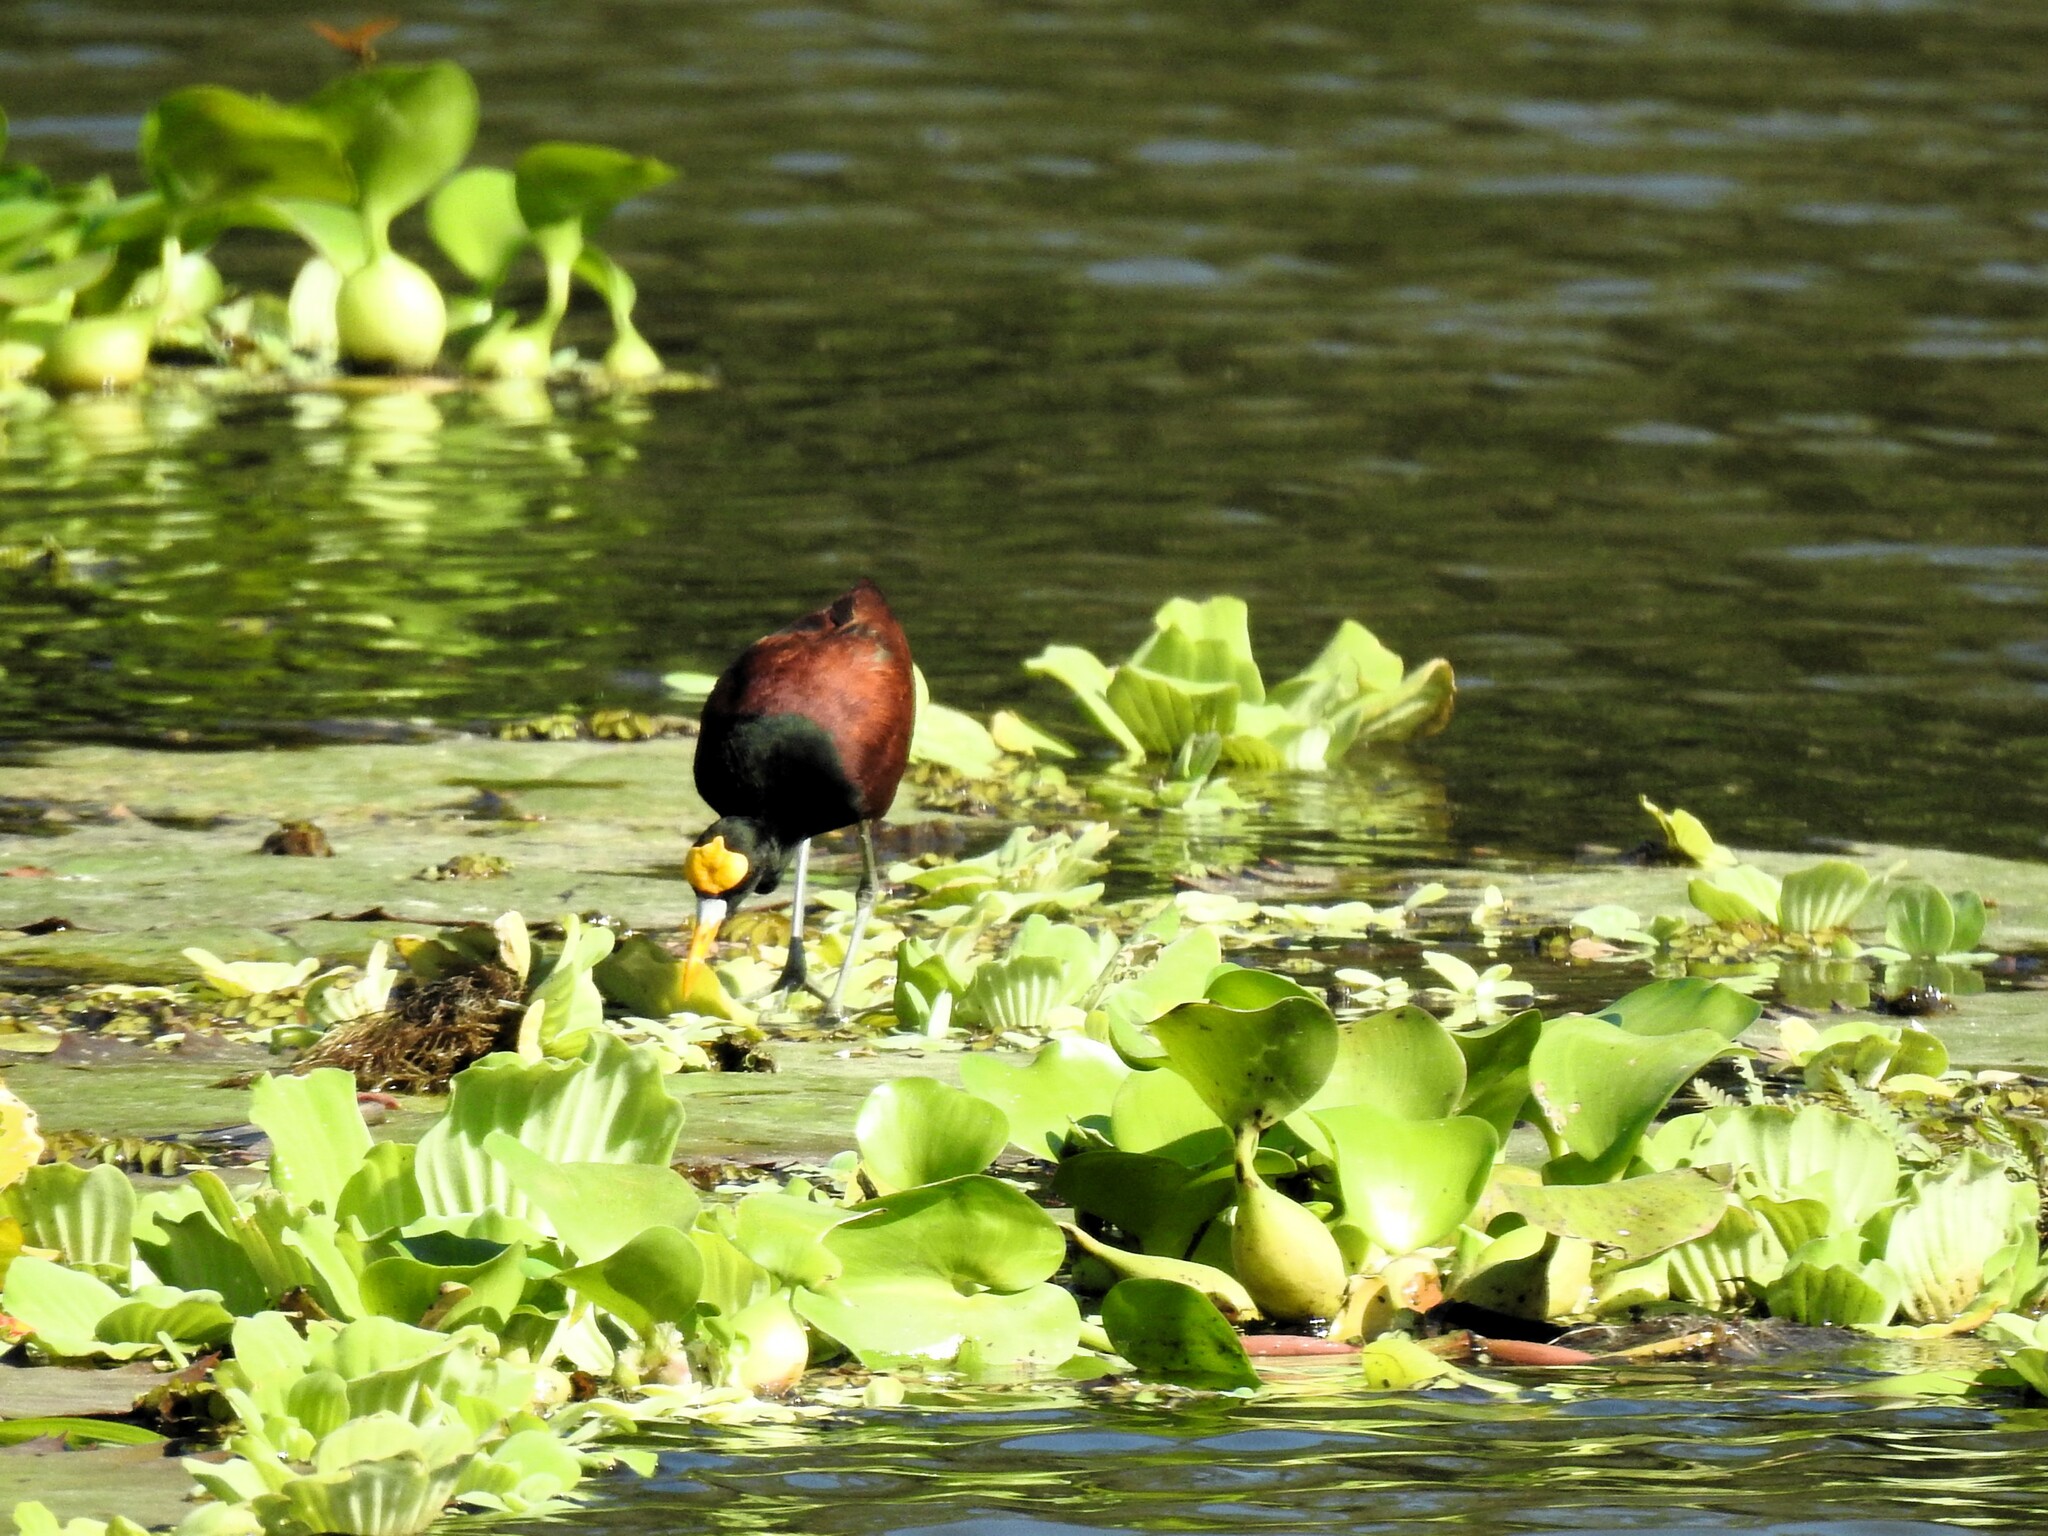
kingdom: Animalia
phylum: Chordata
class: Aves
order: Charadriiformes
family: Jacanidae
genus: Jacana
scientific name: Jacana spinosa
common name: Northern jacana
